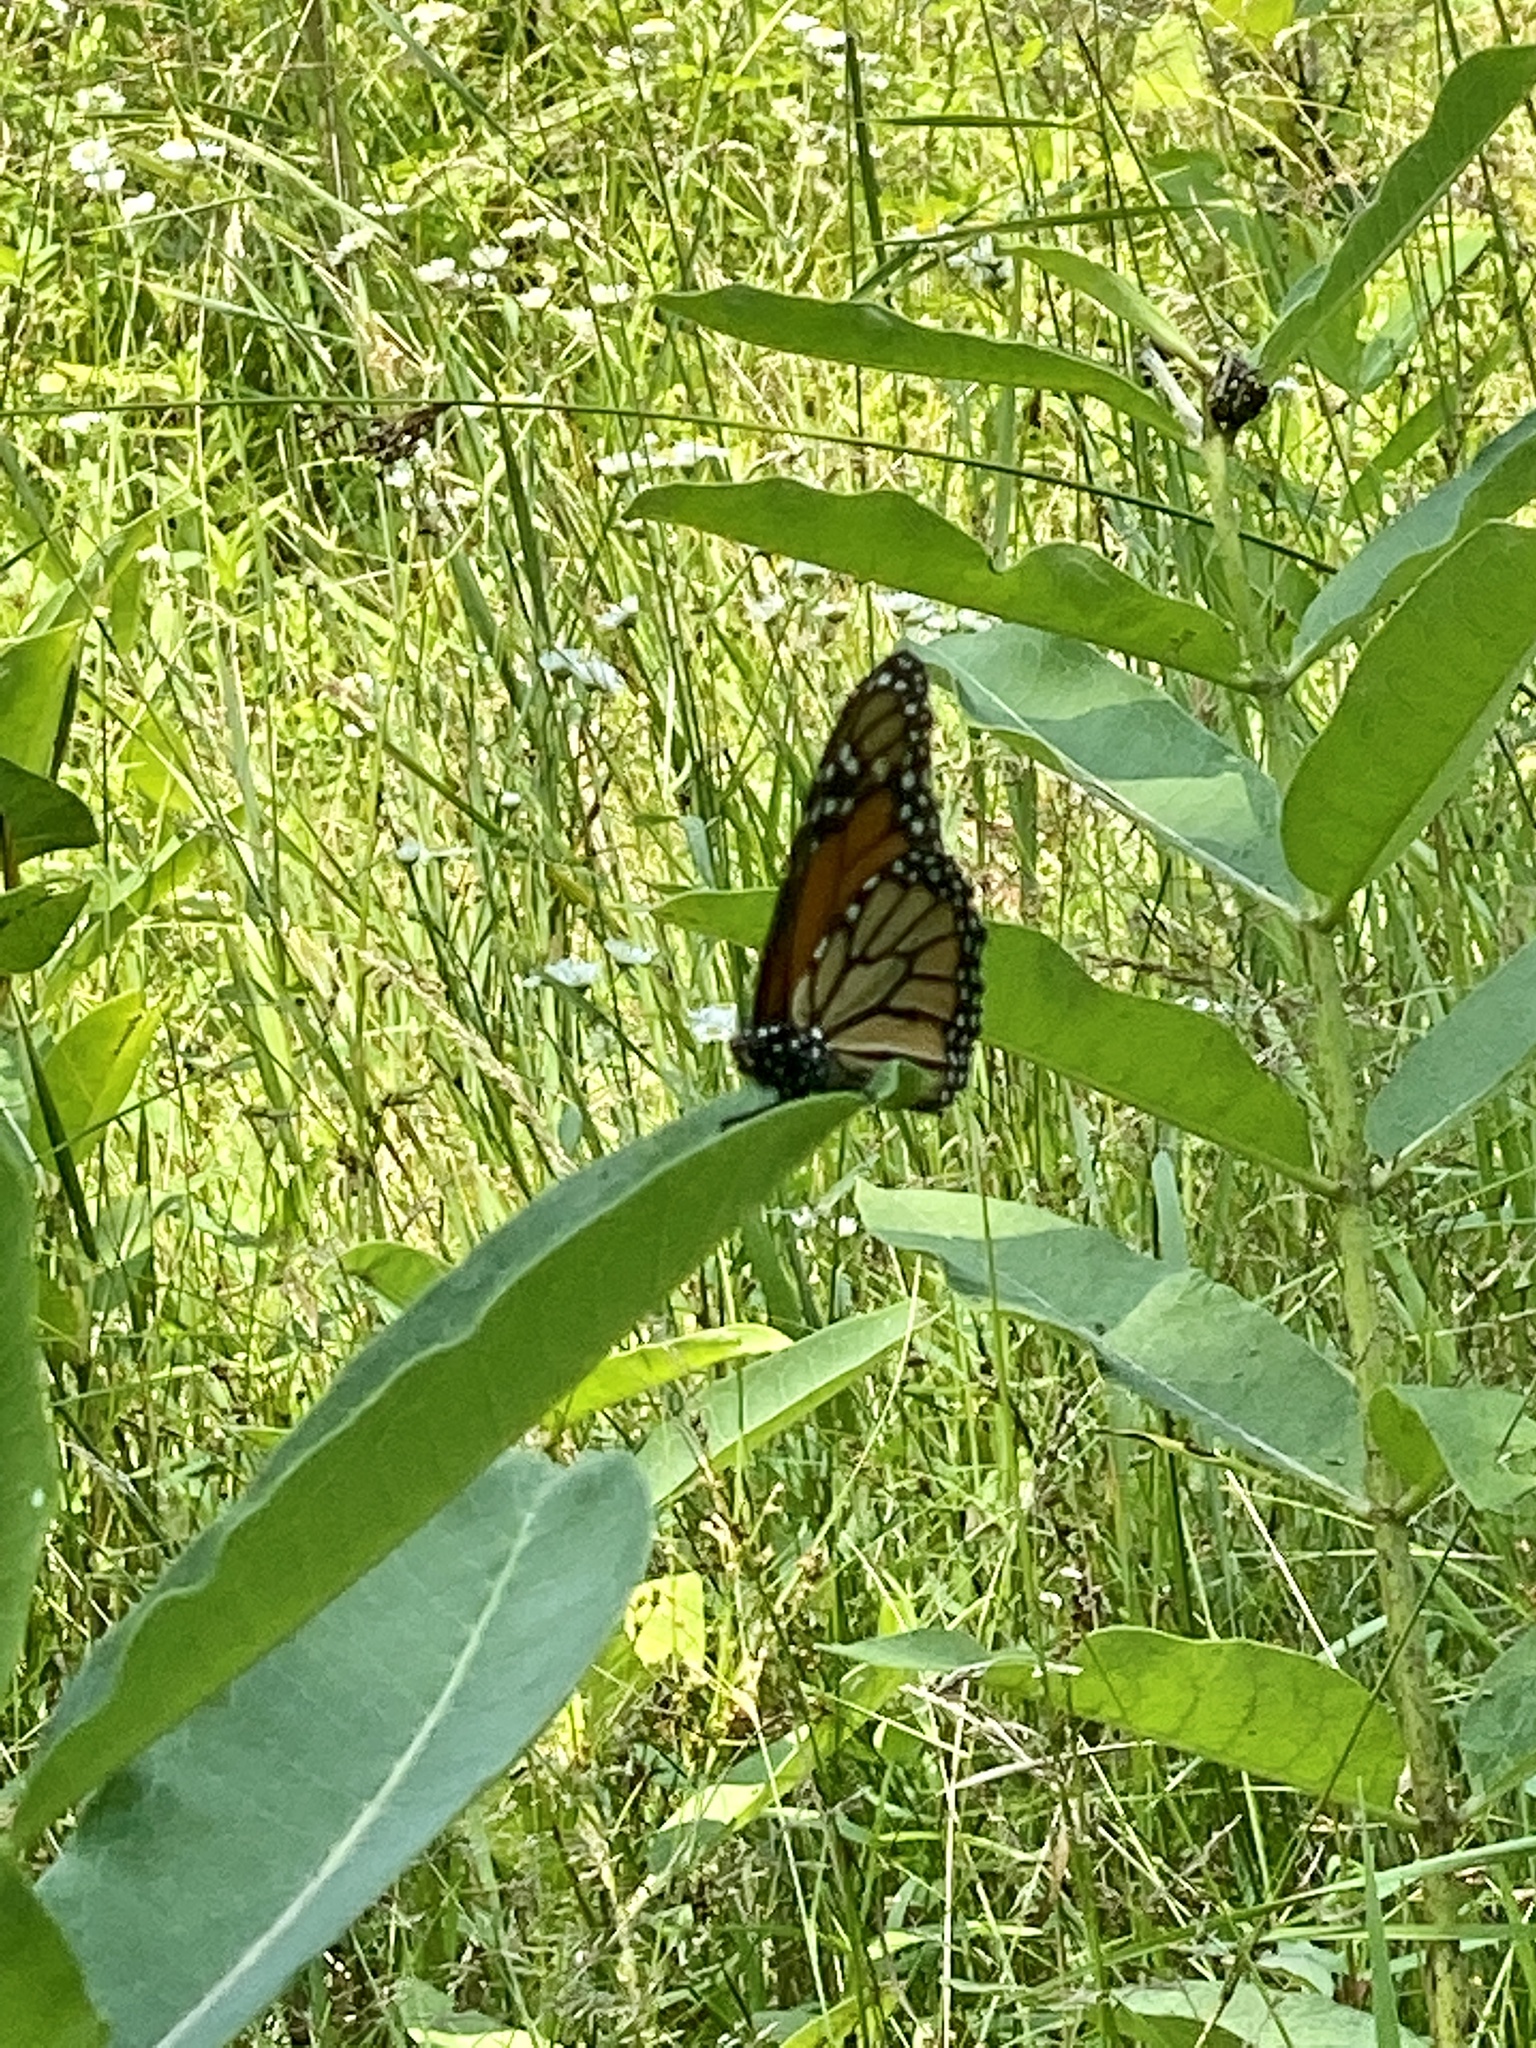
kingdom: Animalia
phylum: Arthropoda
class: Insecta
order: Lepidoptera
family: Nymphalidae
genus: Danaus
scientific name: Danaus plexippus
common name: Monarch
